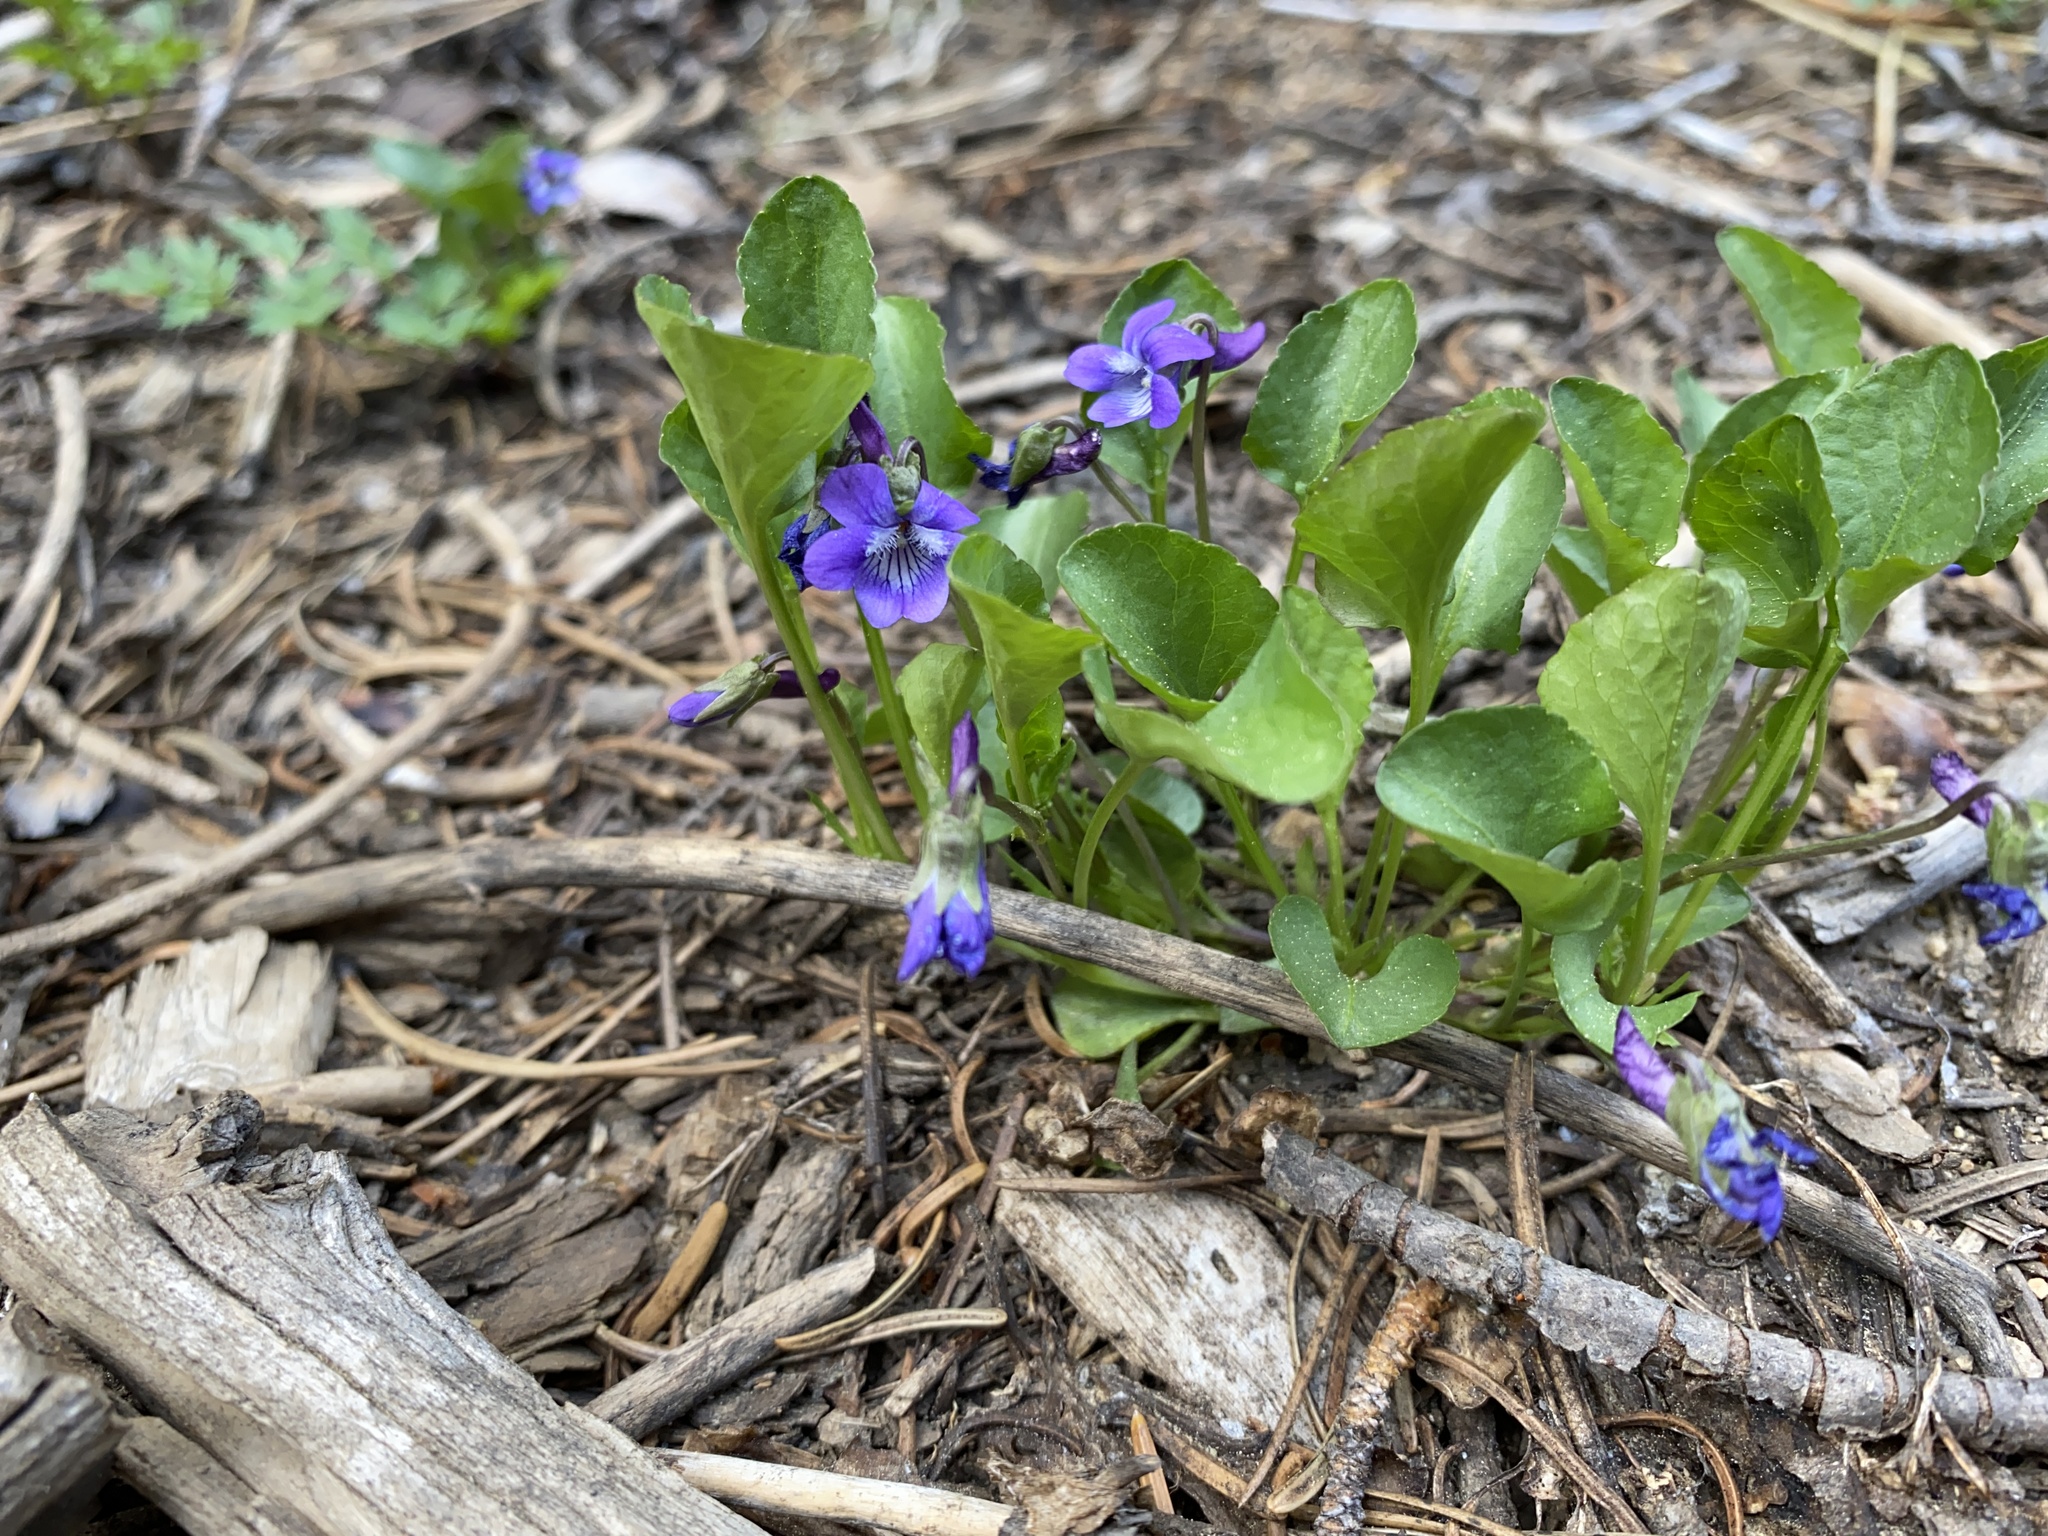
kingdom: Plantae
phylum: Tracheophyta
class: Magnoliopsida
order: Malpighiales
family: Violaceae
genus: Viola
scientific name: Viola adunca
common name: Sand violet
